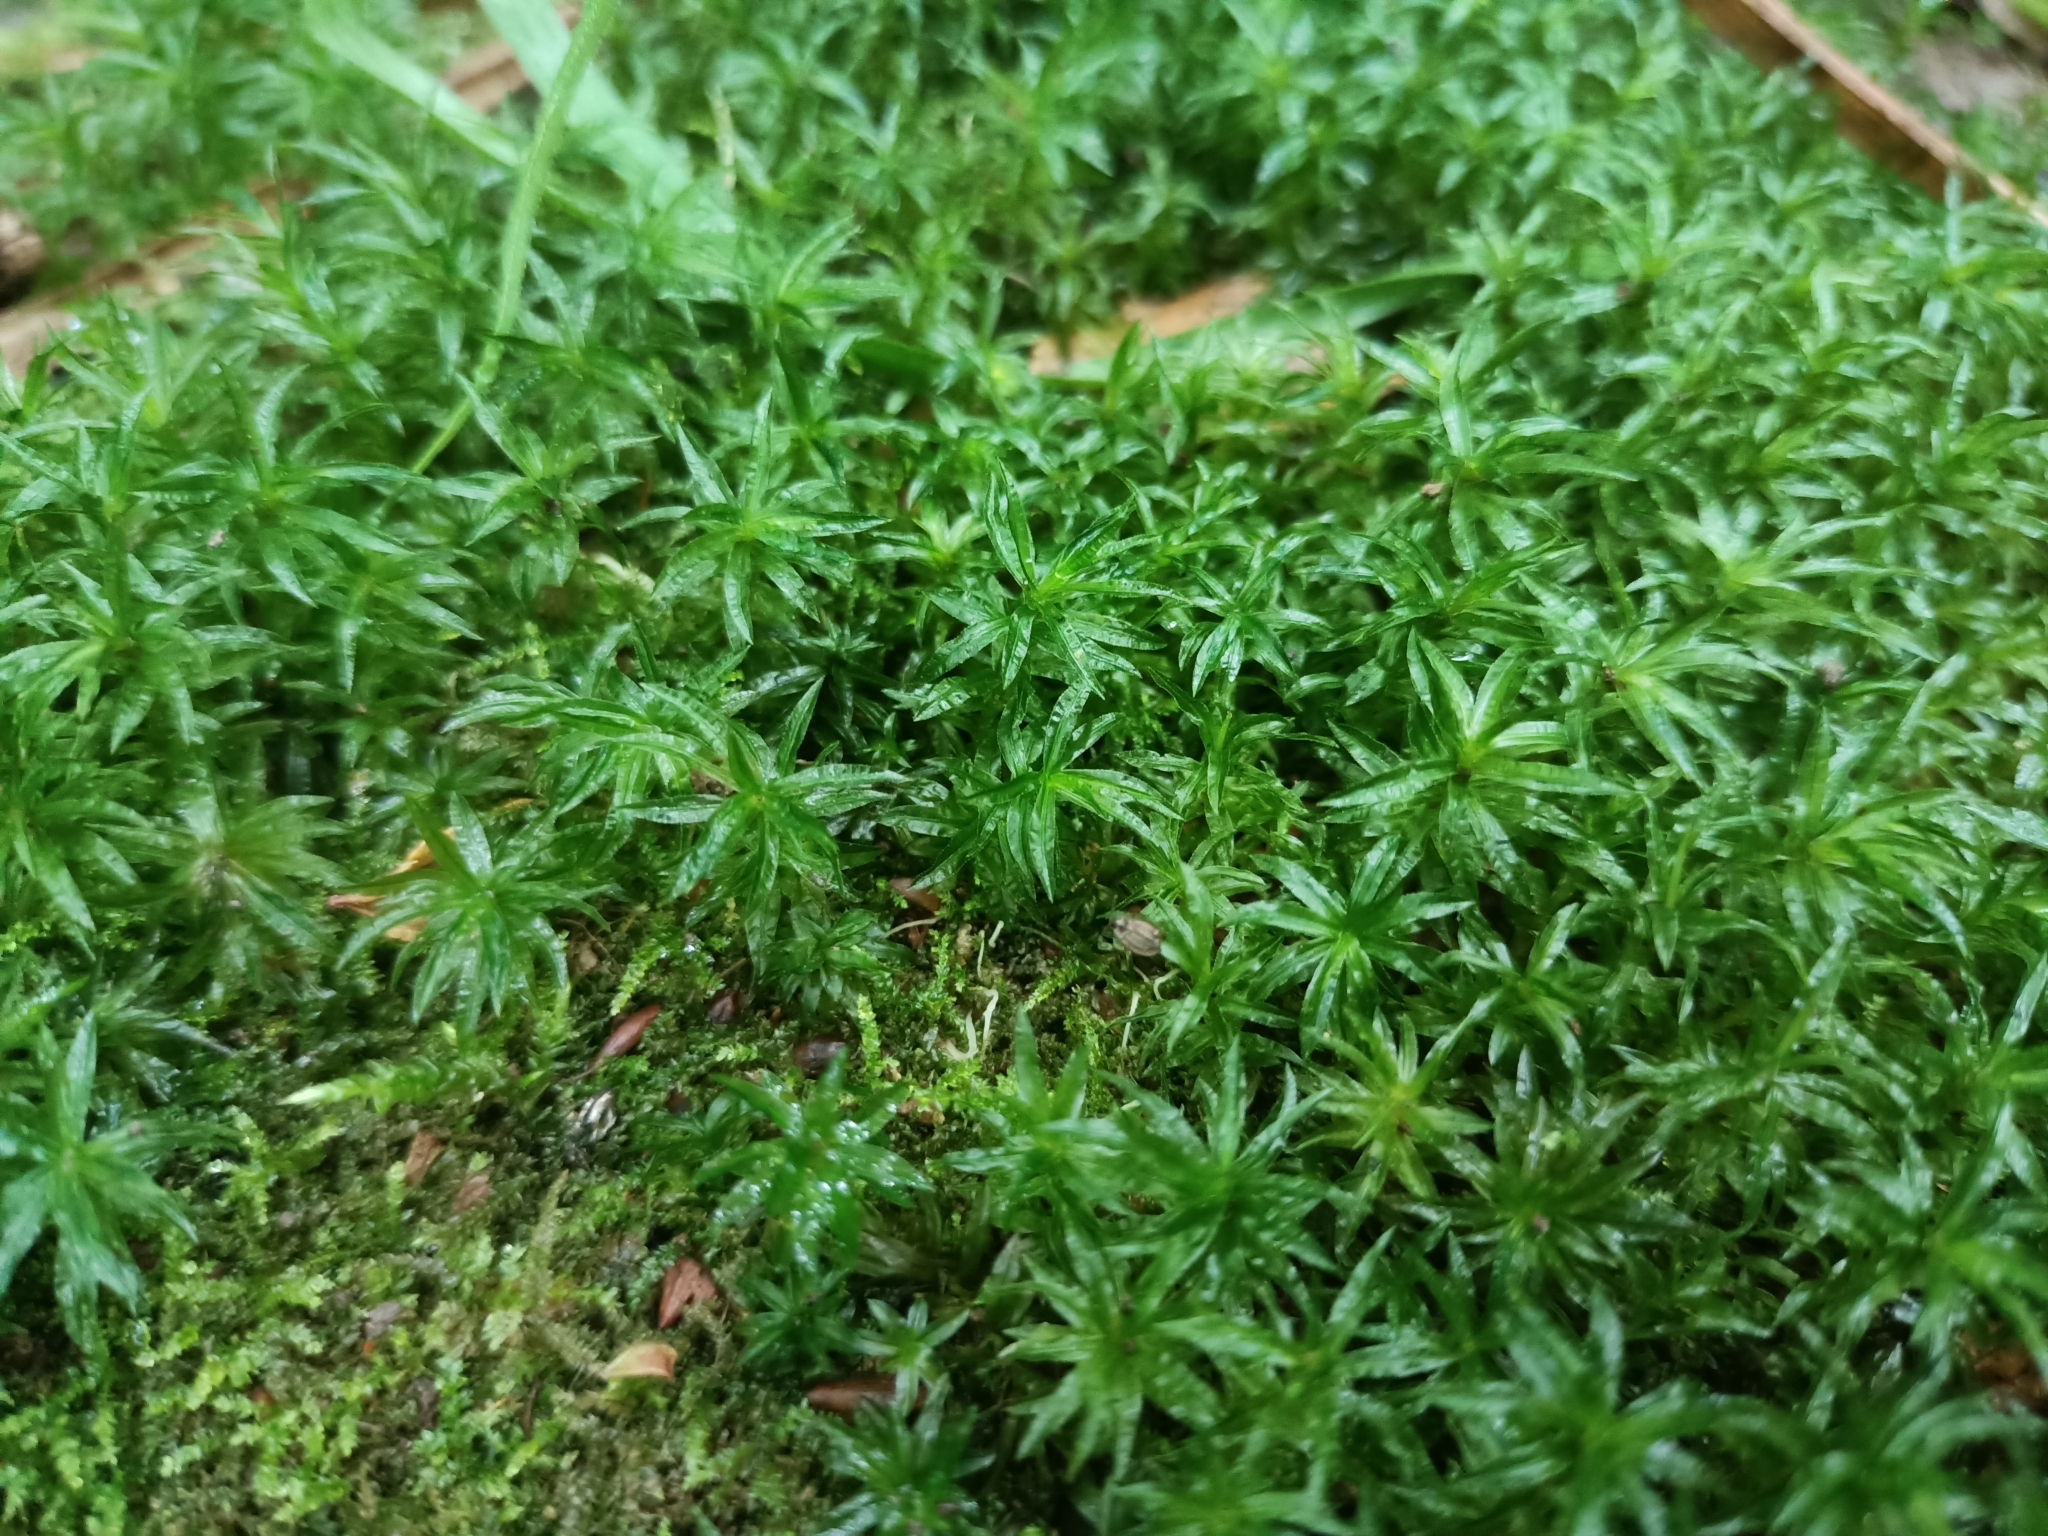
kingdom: Plantae
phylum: Bryophyta
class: Polytrichopsida
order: Polytrichales
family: Polytrichaceae
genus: Atrichum
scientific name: Atrichum undulatum
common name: Common smoothcap
